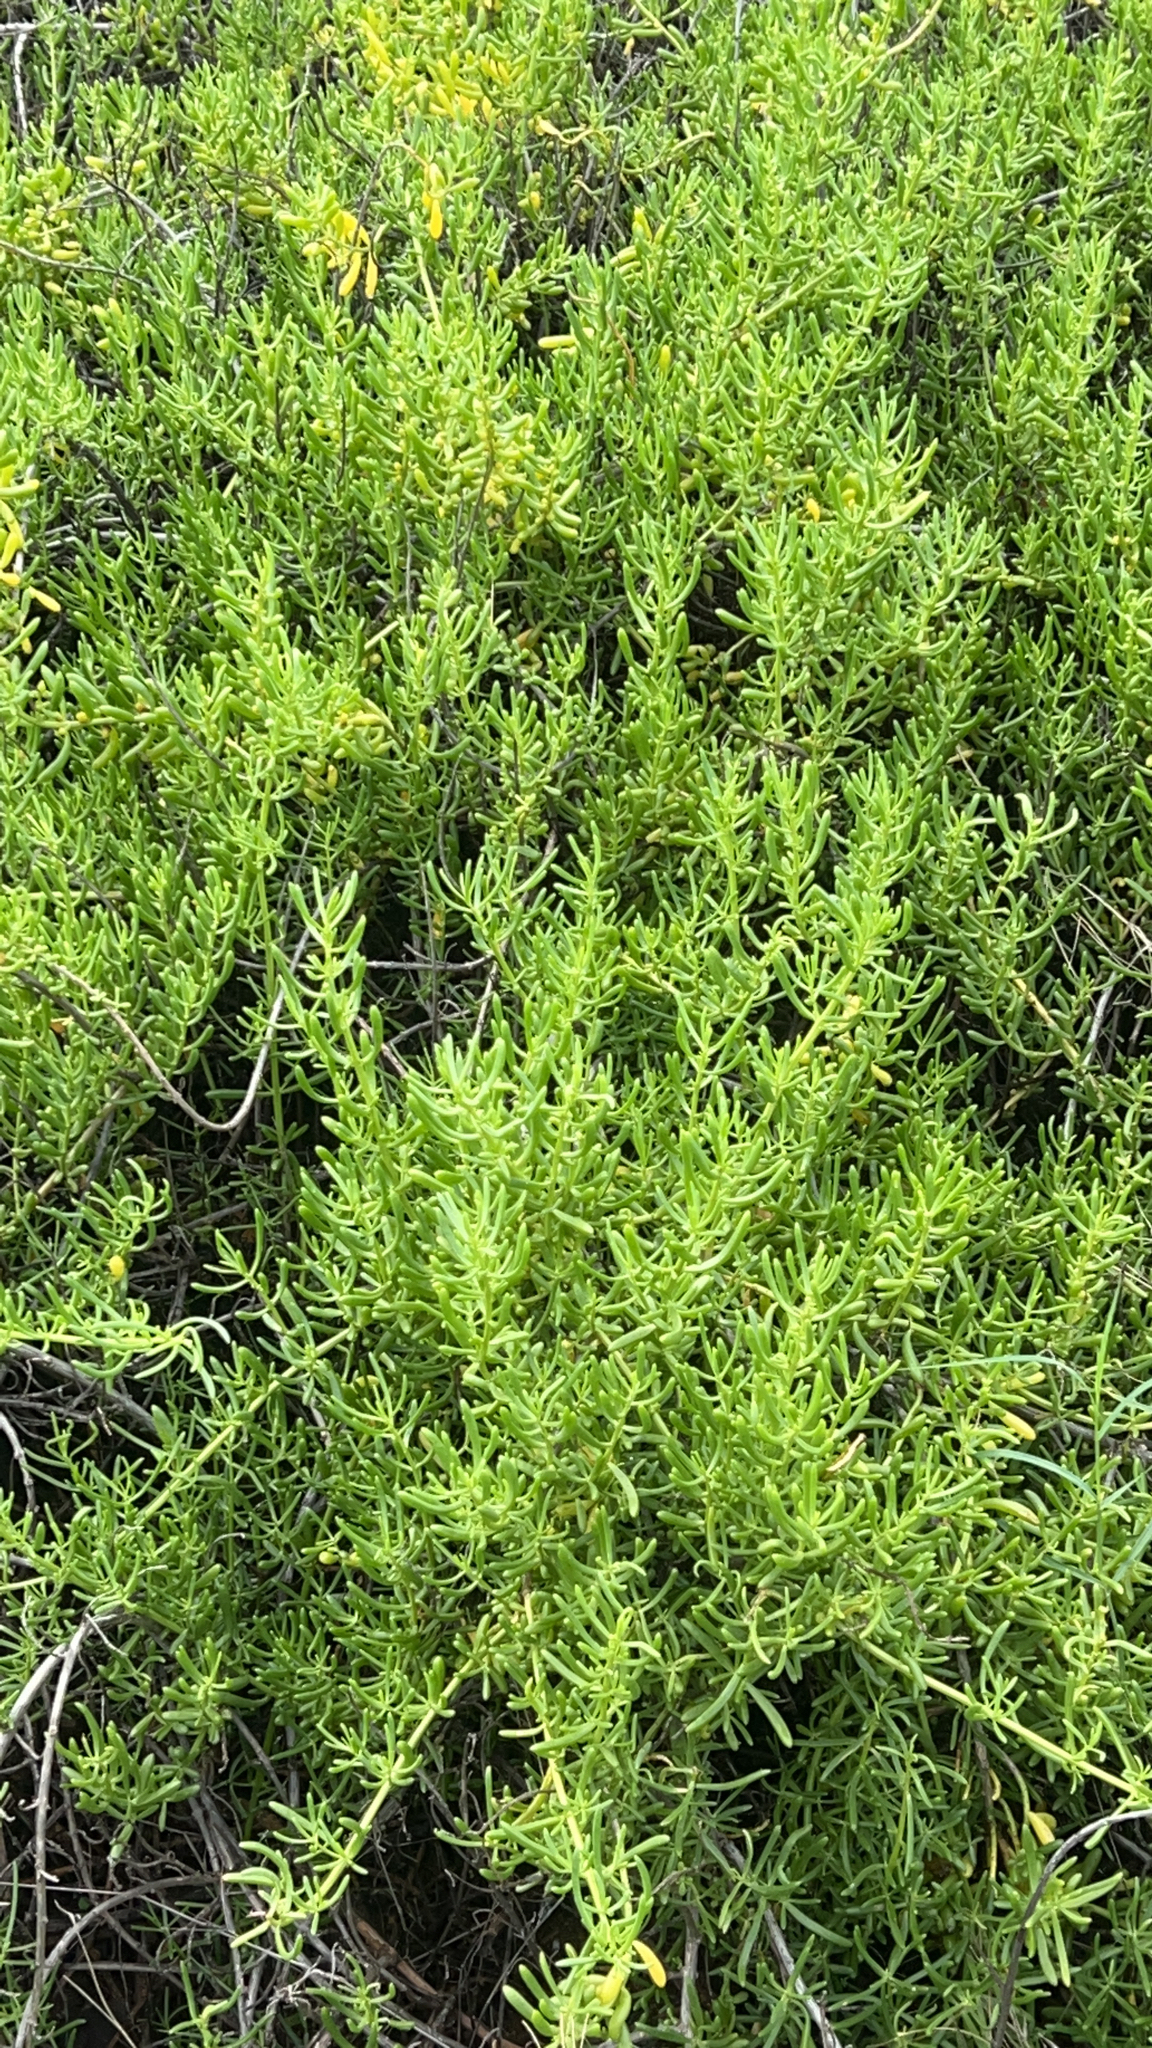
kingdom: Plantae
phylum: Tracheophyta
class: Magnoliopsida
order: Brassicales
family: Bataceae
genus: Batis
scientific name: Batis maritima
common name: Turtleweed
